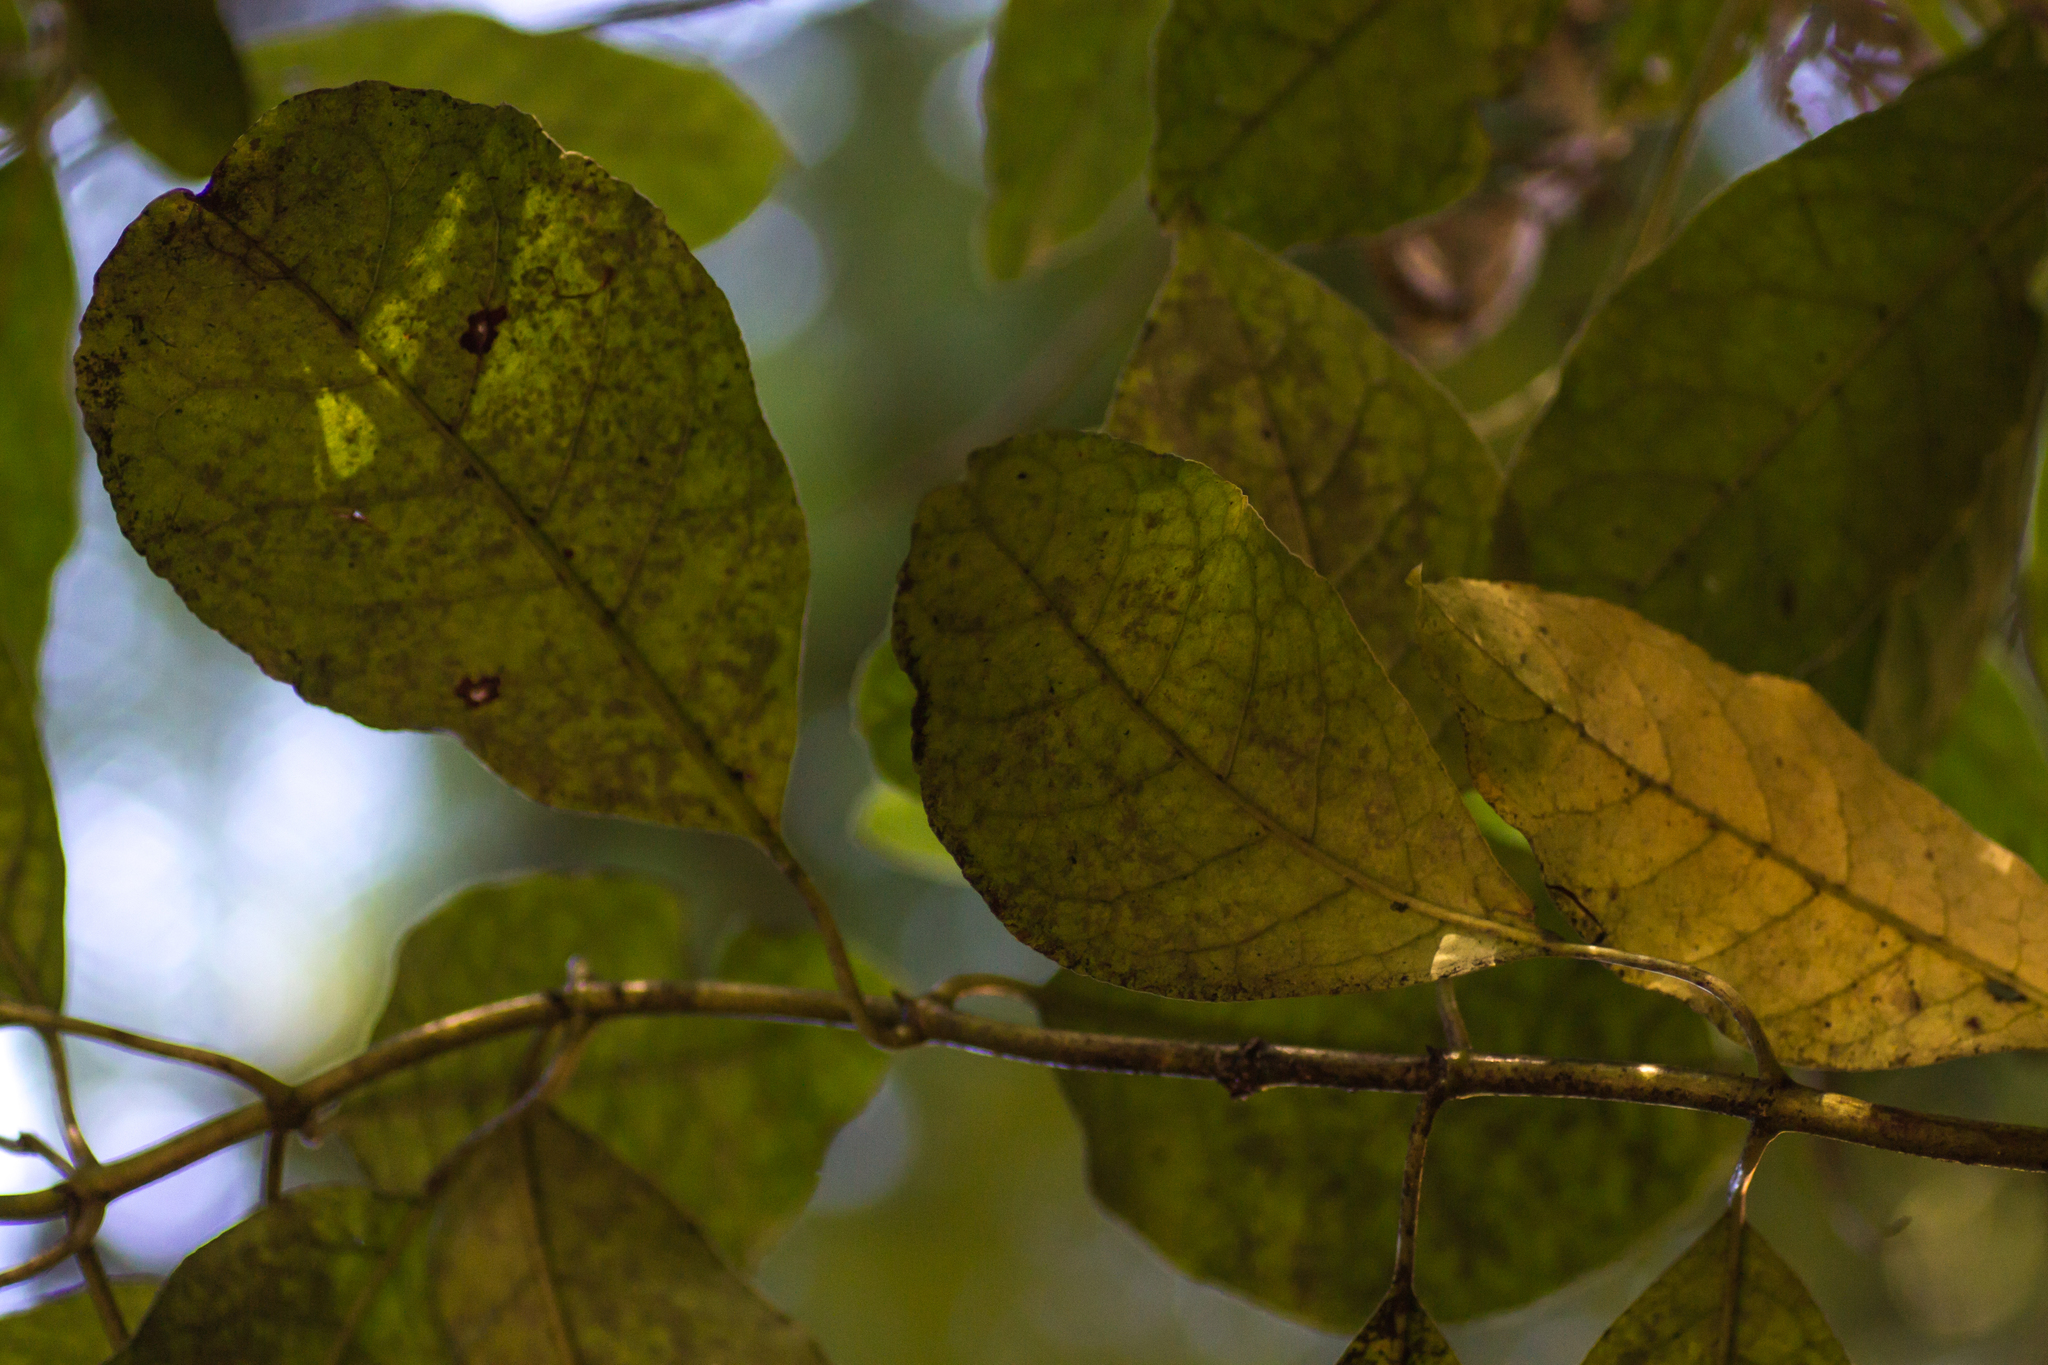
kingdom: Plantae
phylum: Tracheophyta
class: Magnoliopsida
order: Gentianales
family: Rubiaceae
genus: Coprosma
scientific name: Coprosma autumnalis
